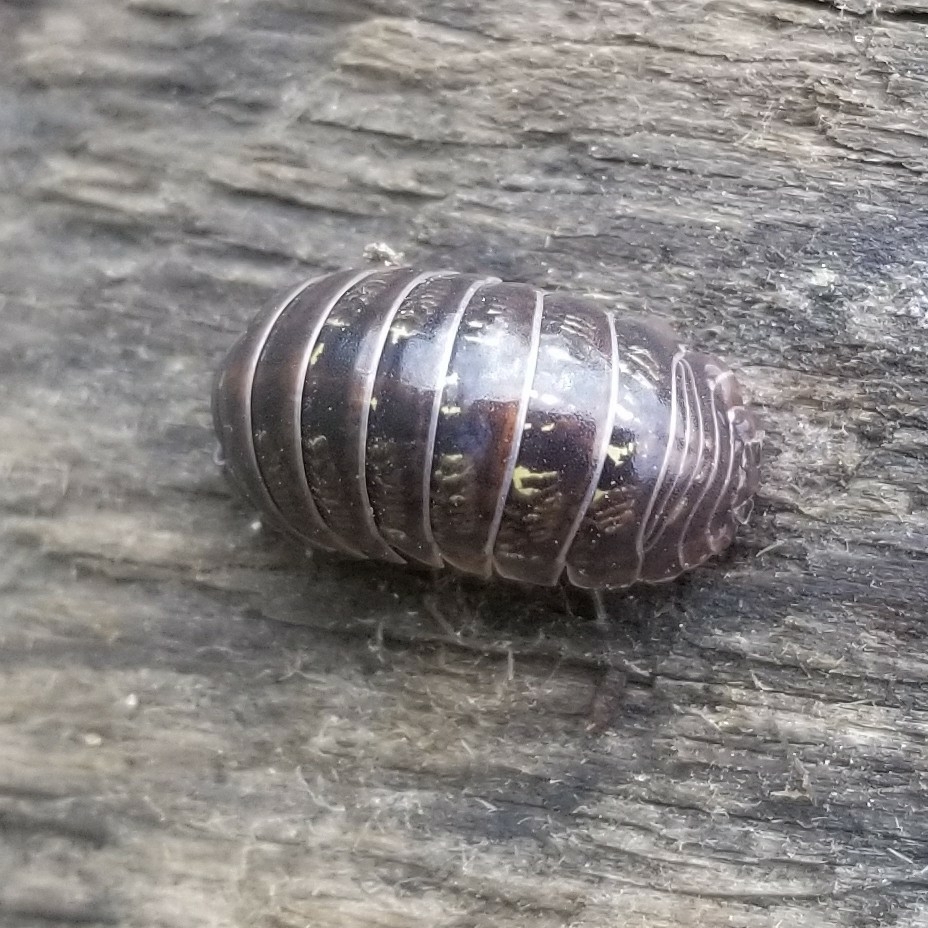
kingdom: Animalia
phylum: Arthropoda
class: Malacostraca
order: Isopoda
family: Armadillidiidae
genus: Armadillidium
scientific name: Armadillidium vulgare
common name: Common pill woodlouse
